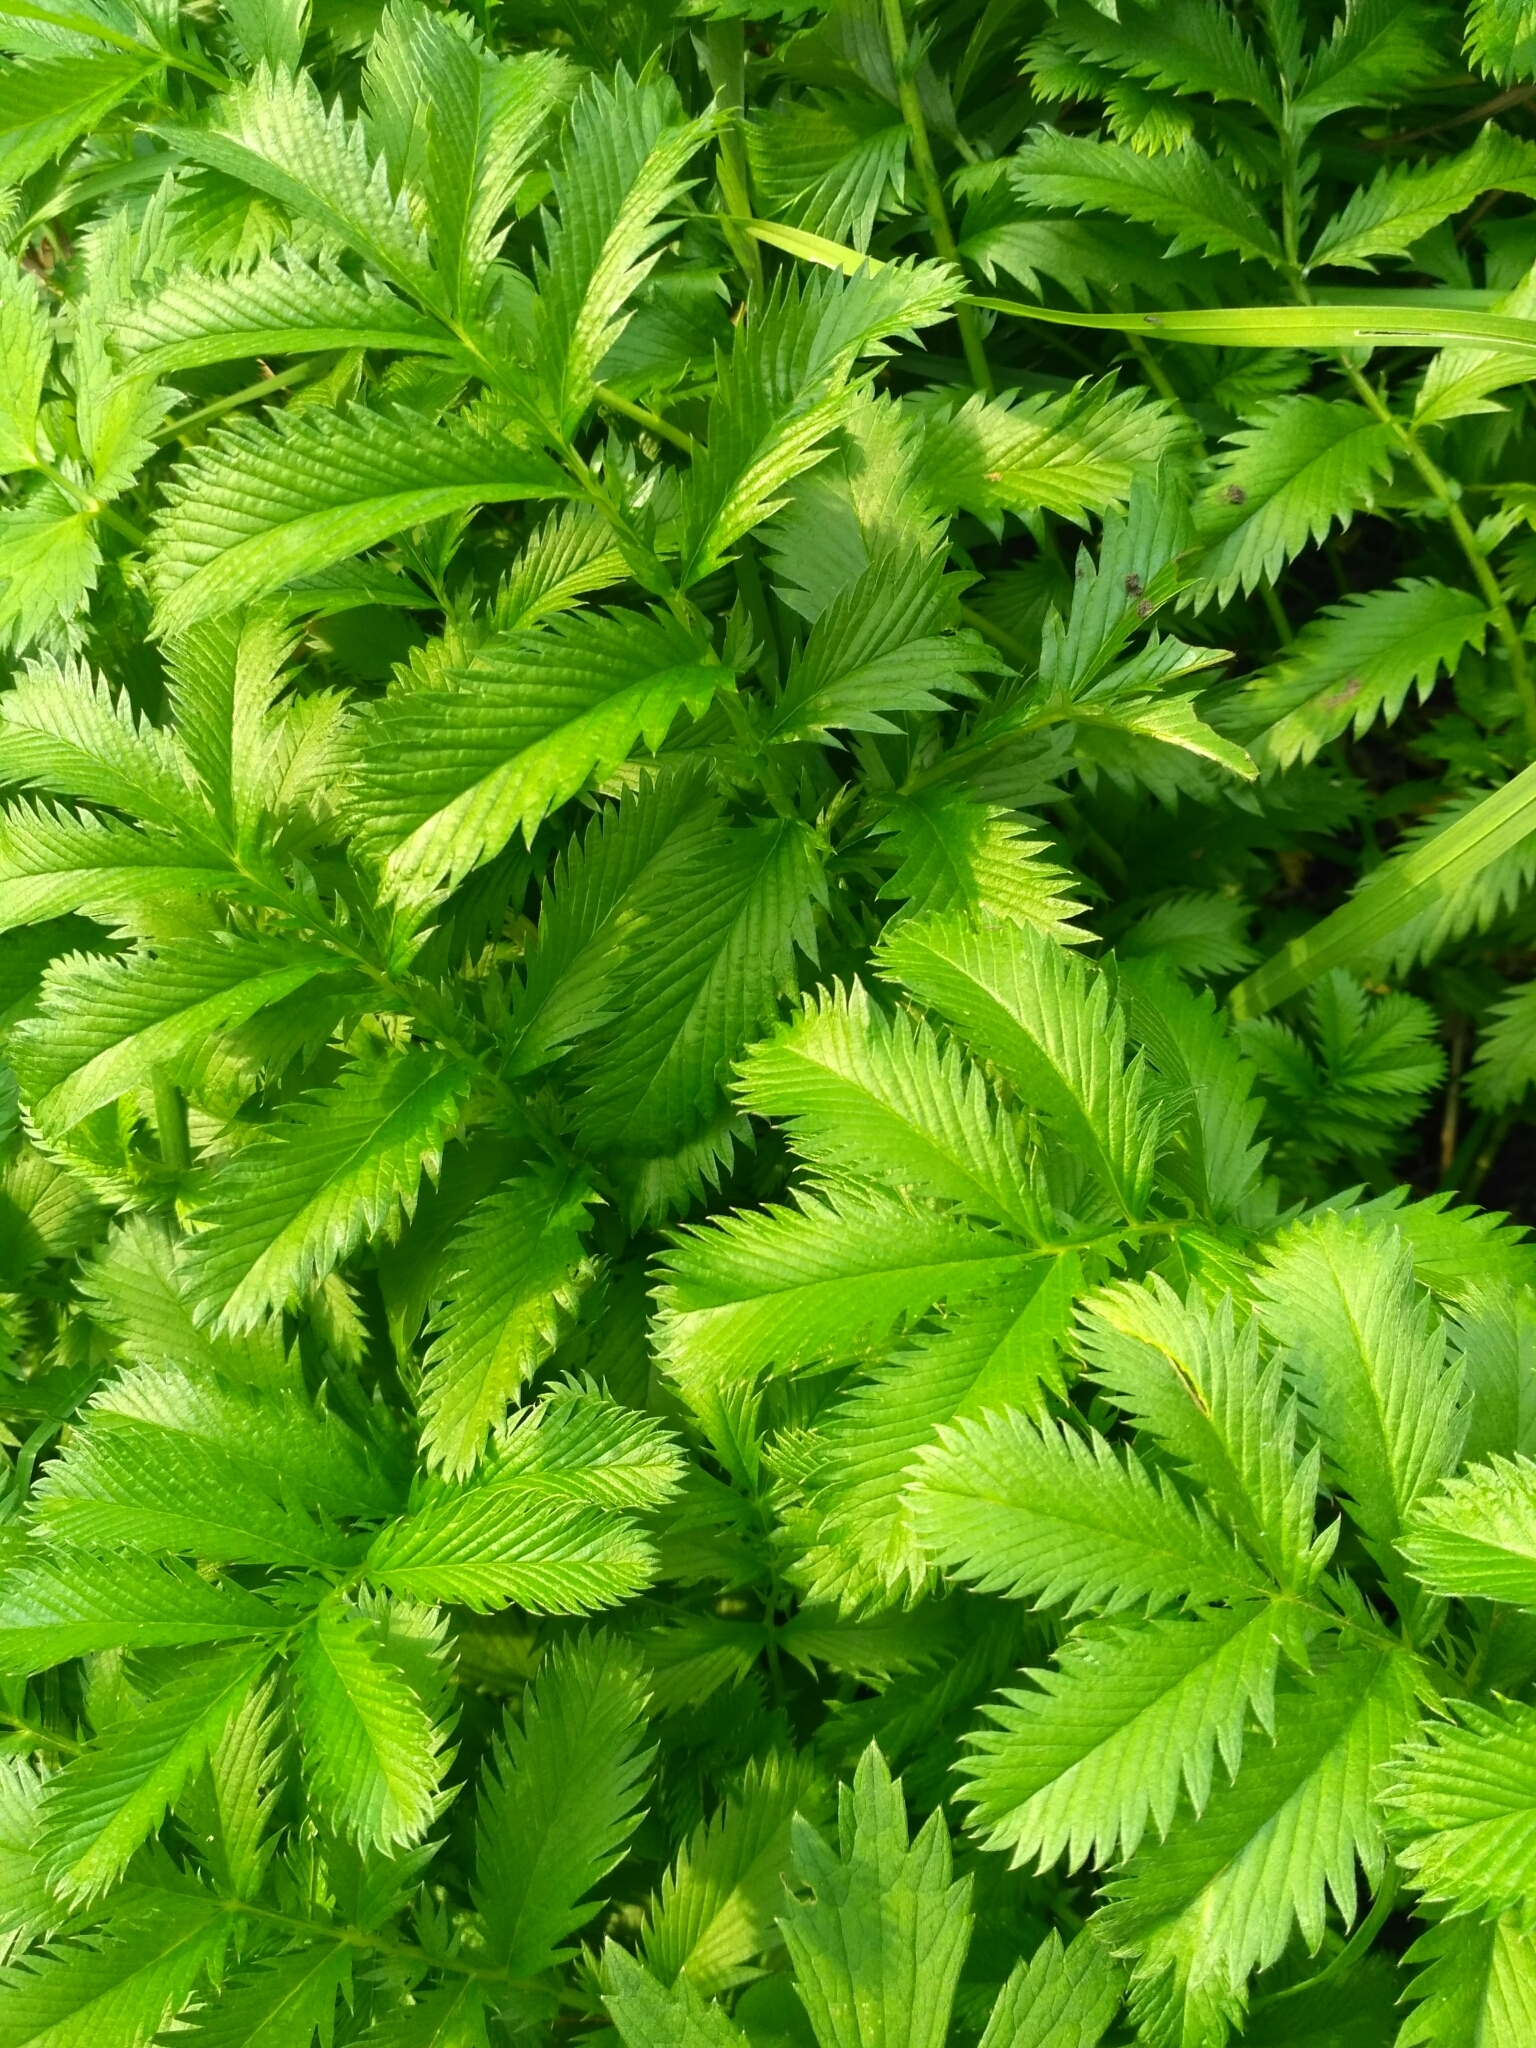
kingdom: Plantae
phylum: Tracheophyta
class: Magnoliopsida
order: Rosales
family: Rosaceae
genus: Argentina
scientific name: Argentina anserina
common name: Common silverweed
